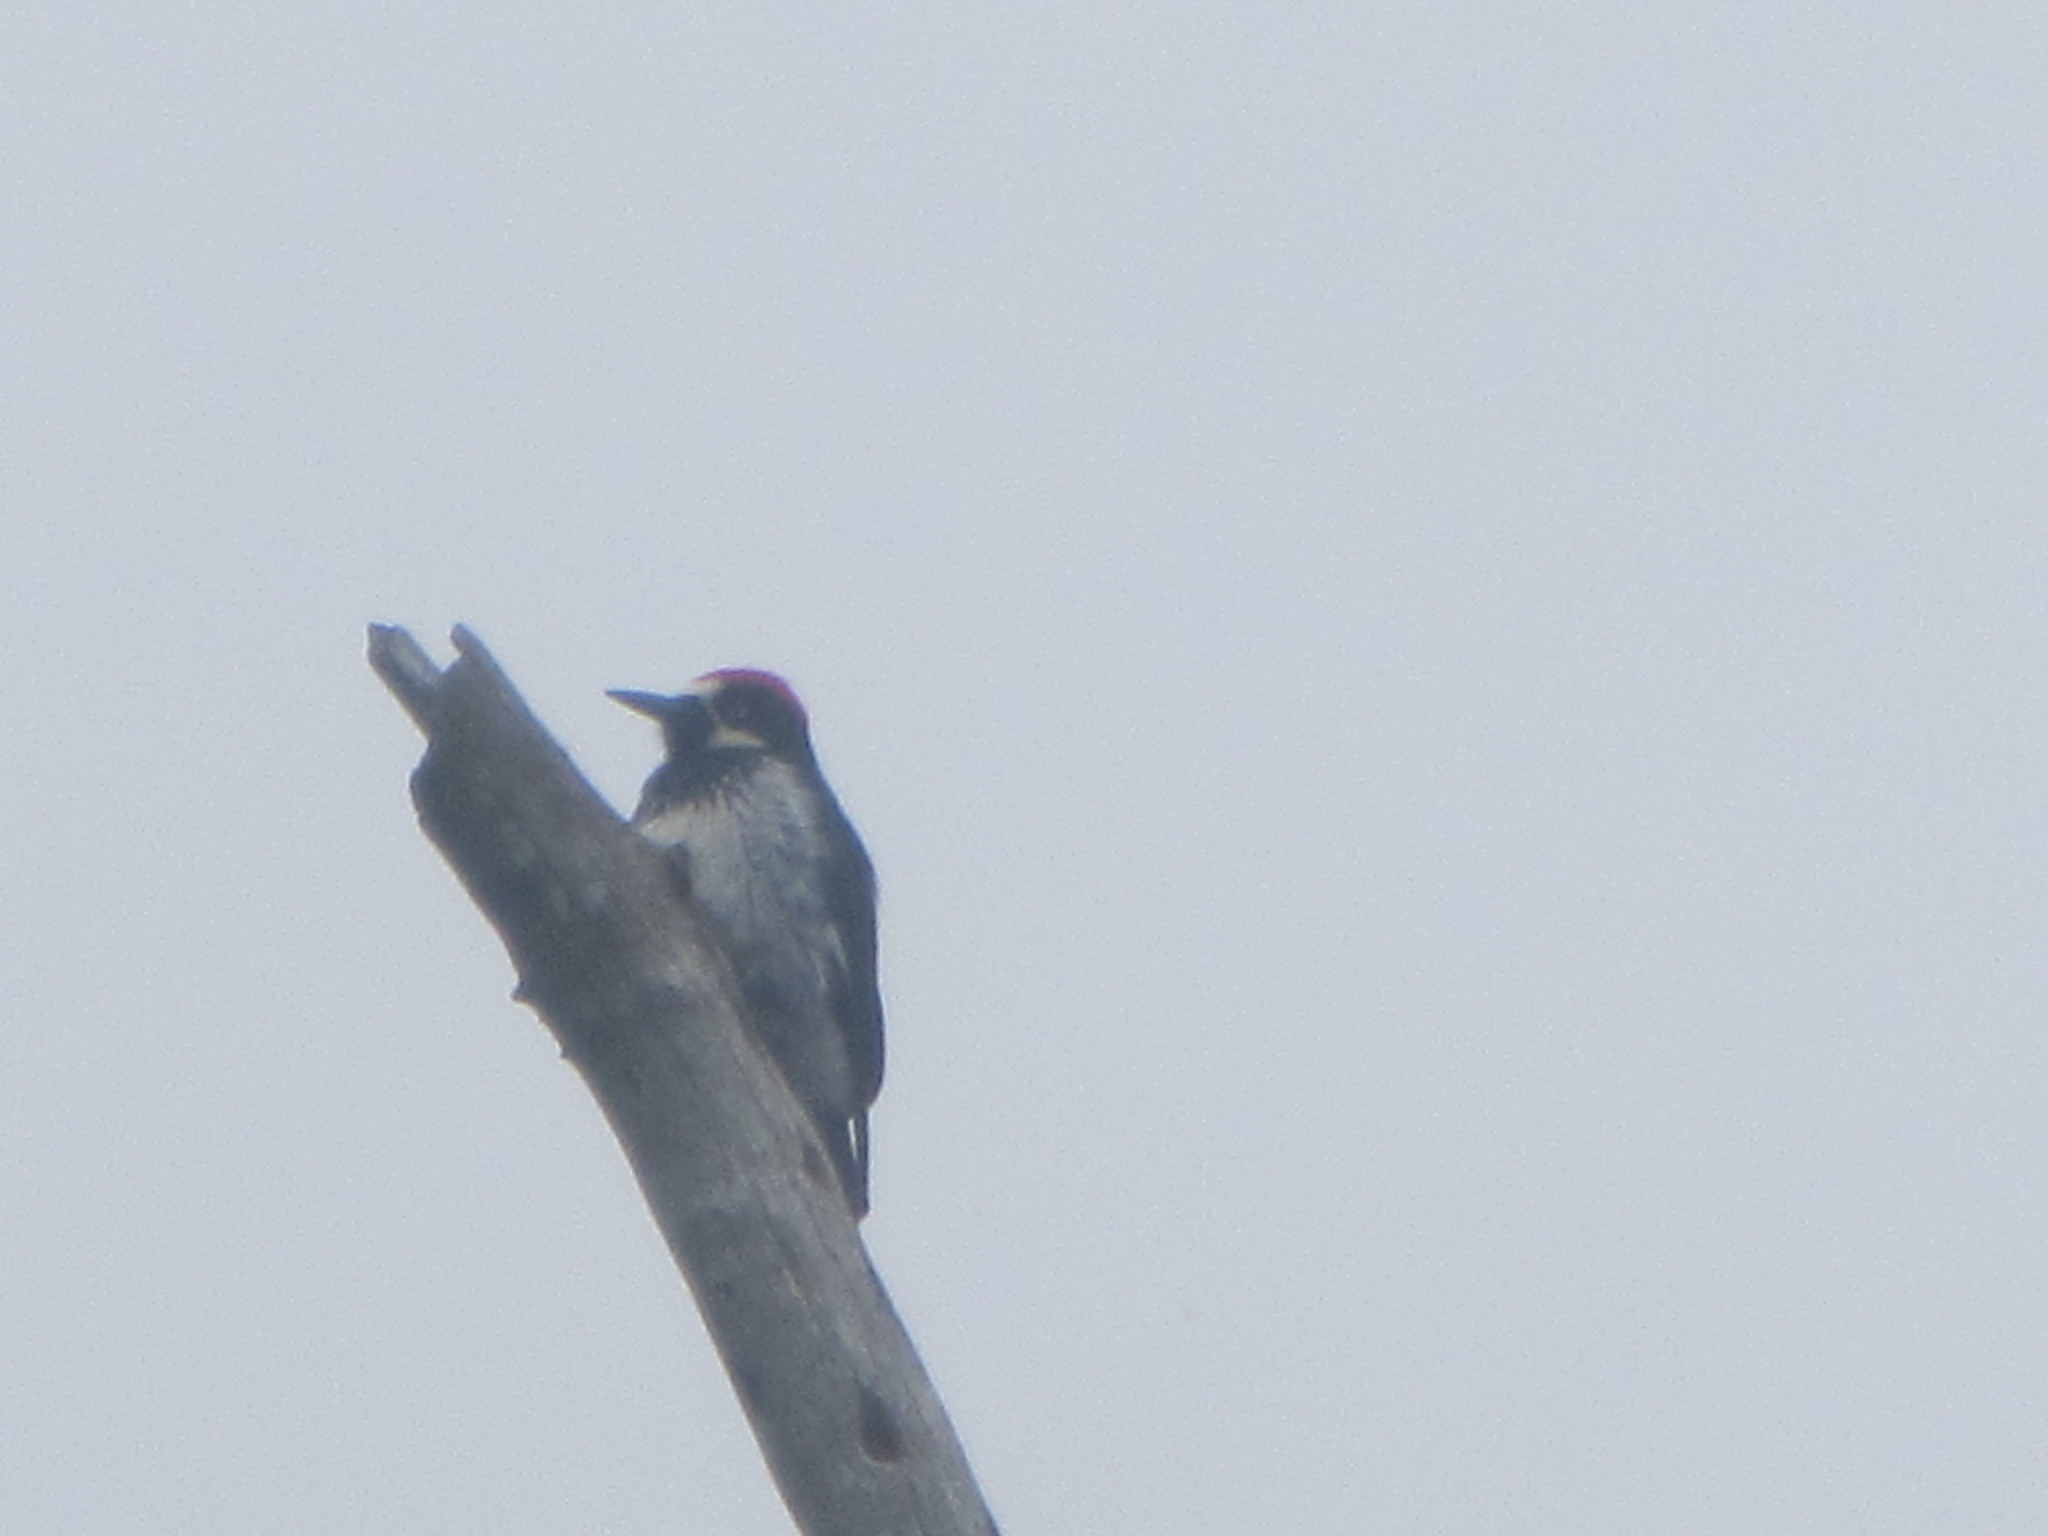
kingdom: Animalia
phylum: Chordata
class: Aves
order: Piciformes
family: Picidae
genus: Melanerpes
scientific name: Melanerpes formicivorus
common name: Acorn woodpecker
